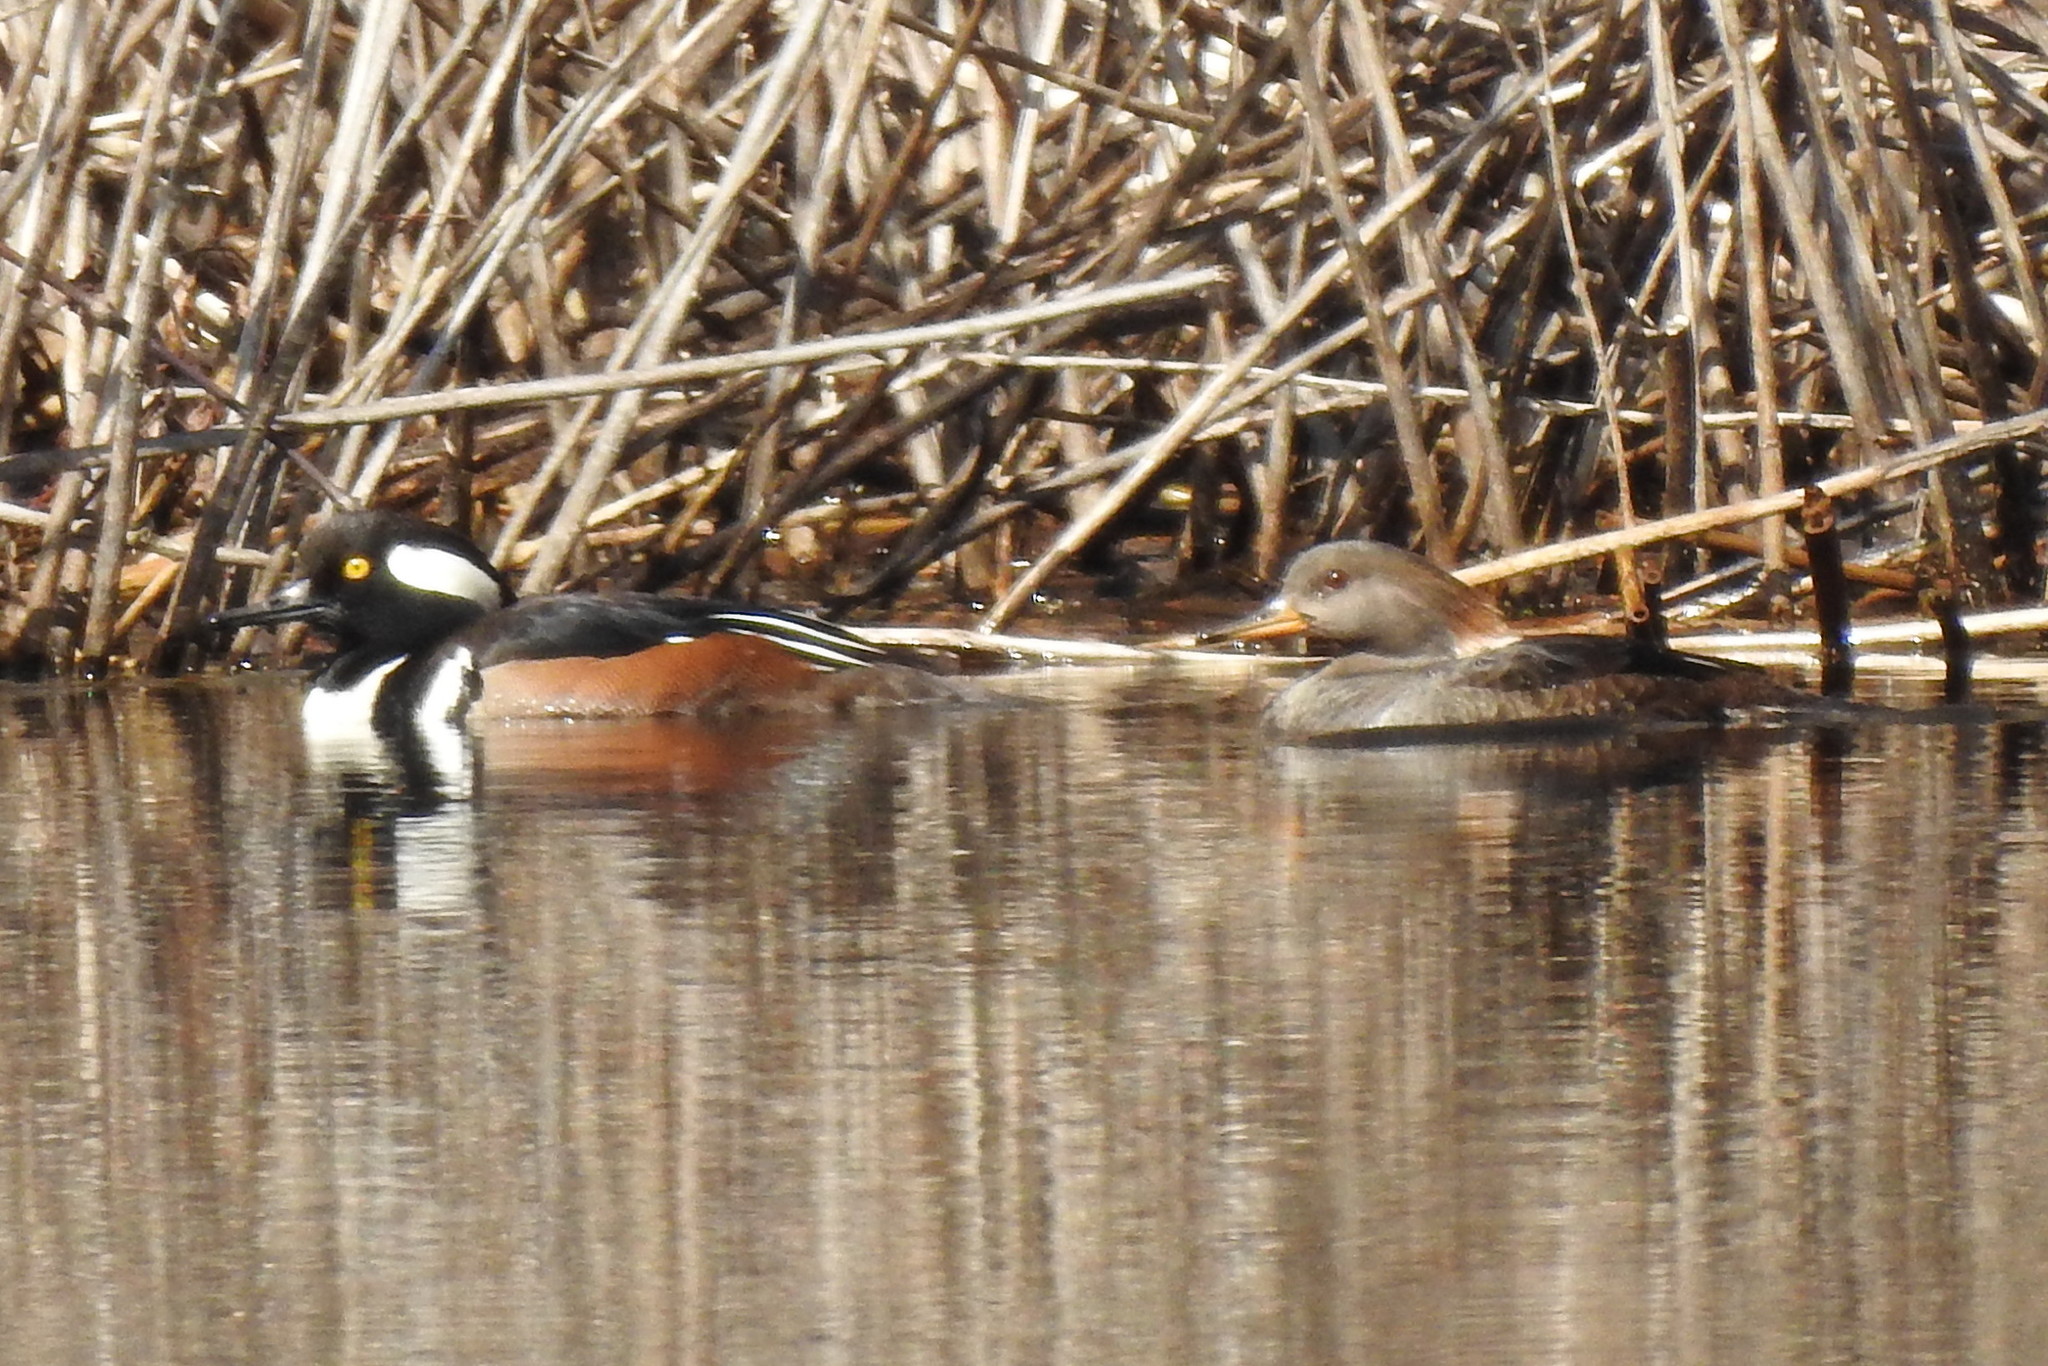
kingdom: Animalia
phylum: Chordata
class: Aves
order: Anseriformes
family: Anatidae
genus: Lophodytes
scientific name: Lophodytes cucullatus
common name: Hooded merganser
